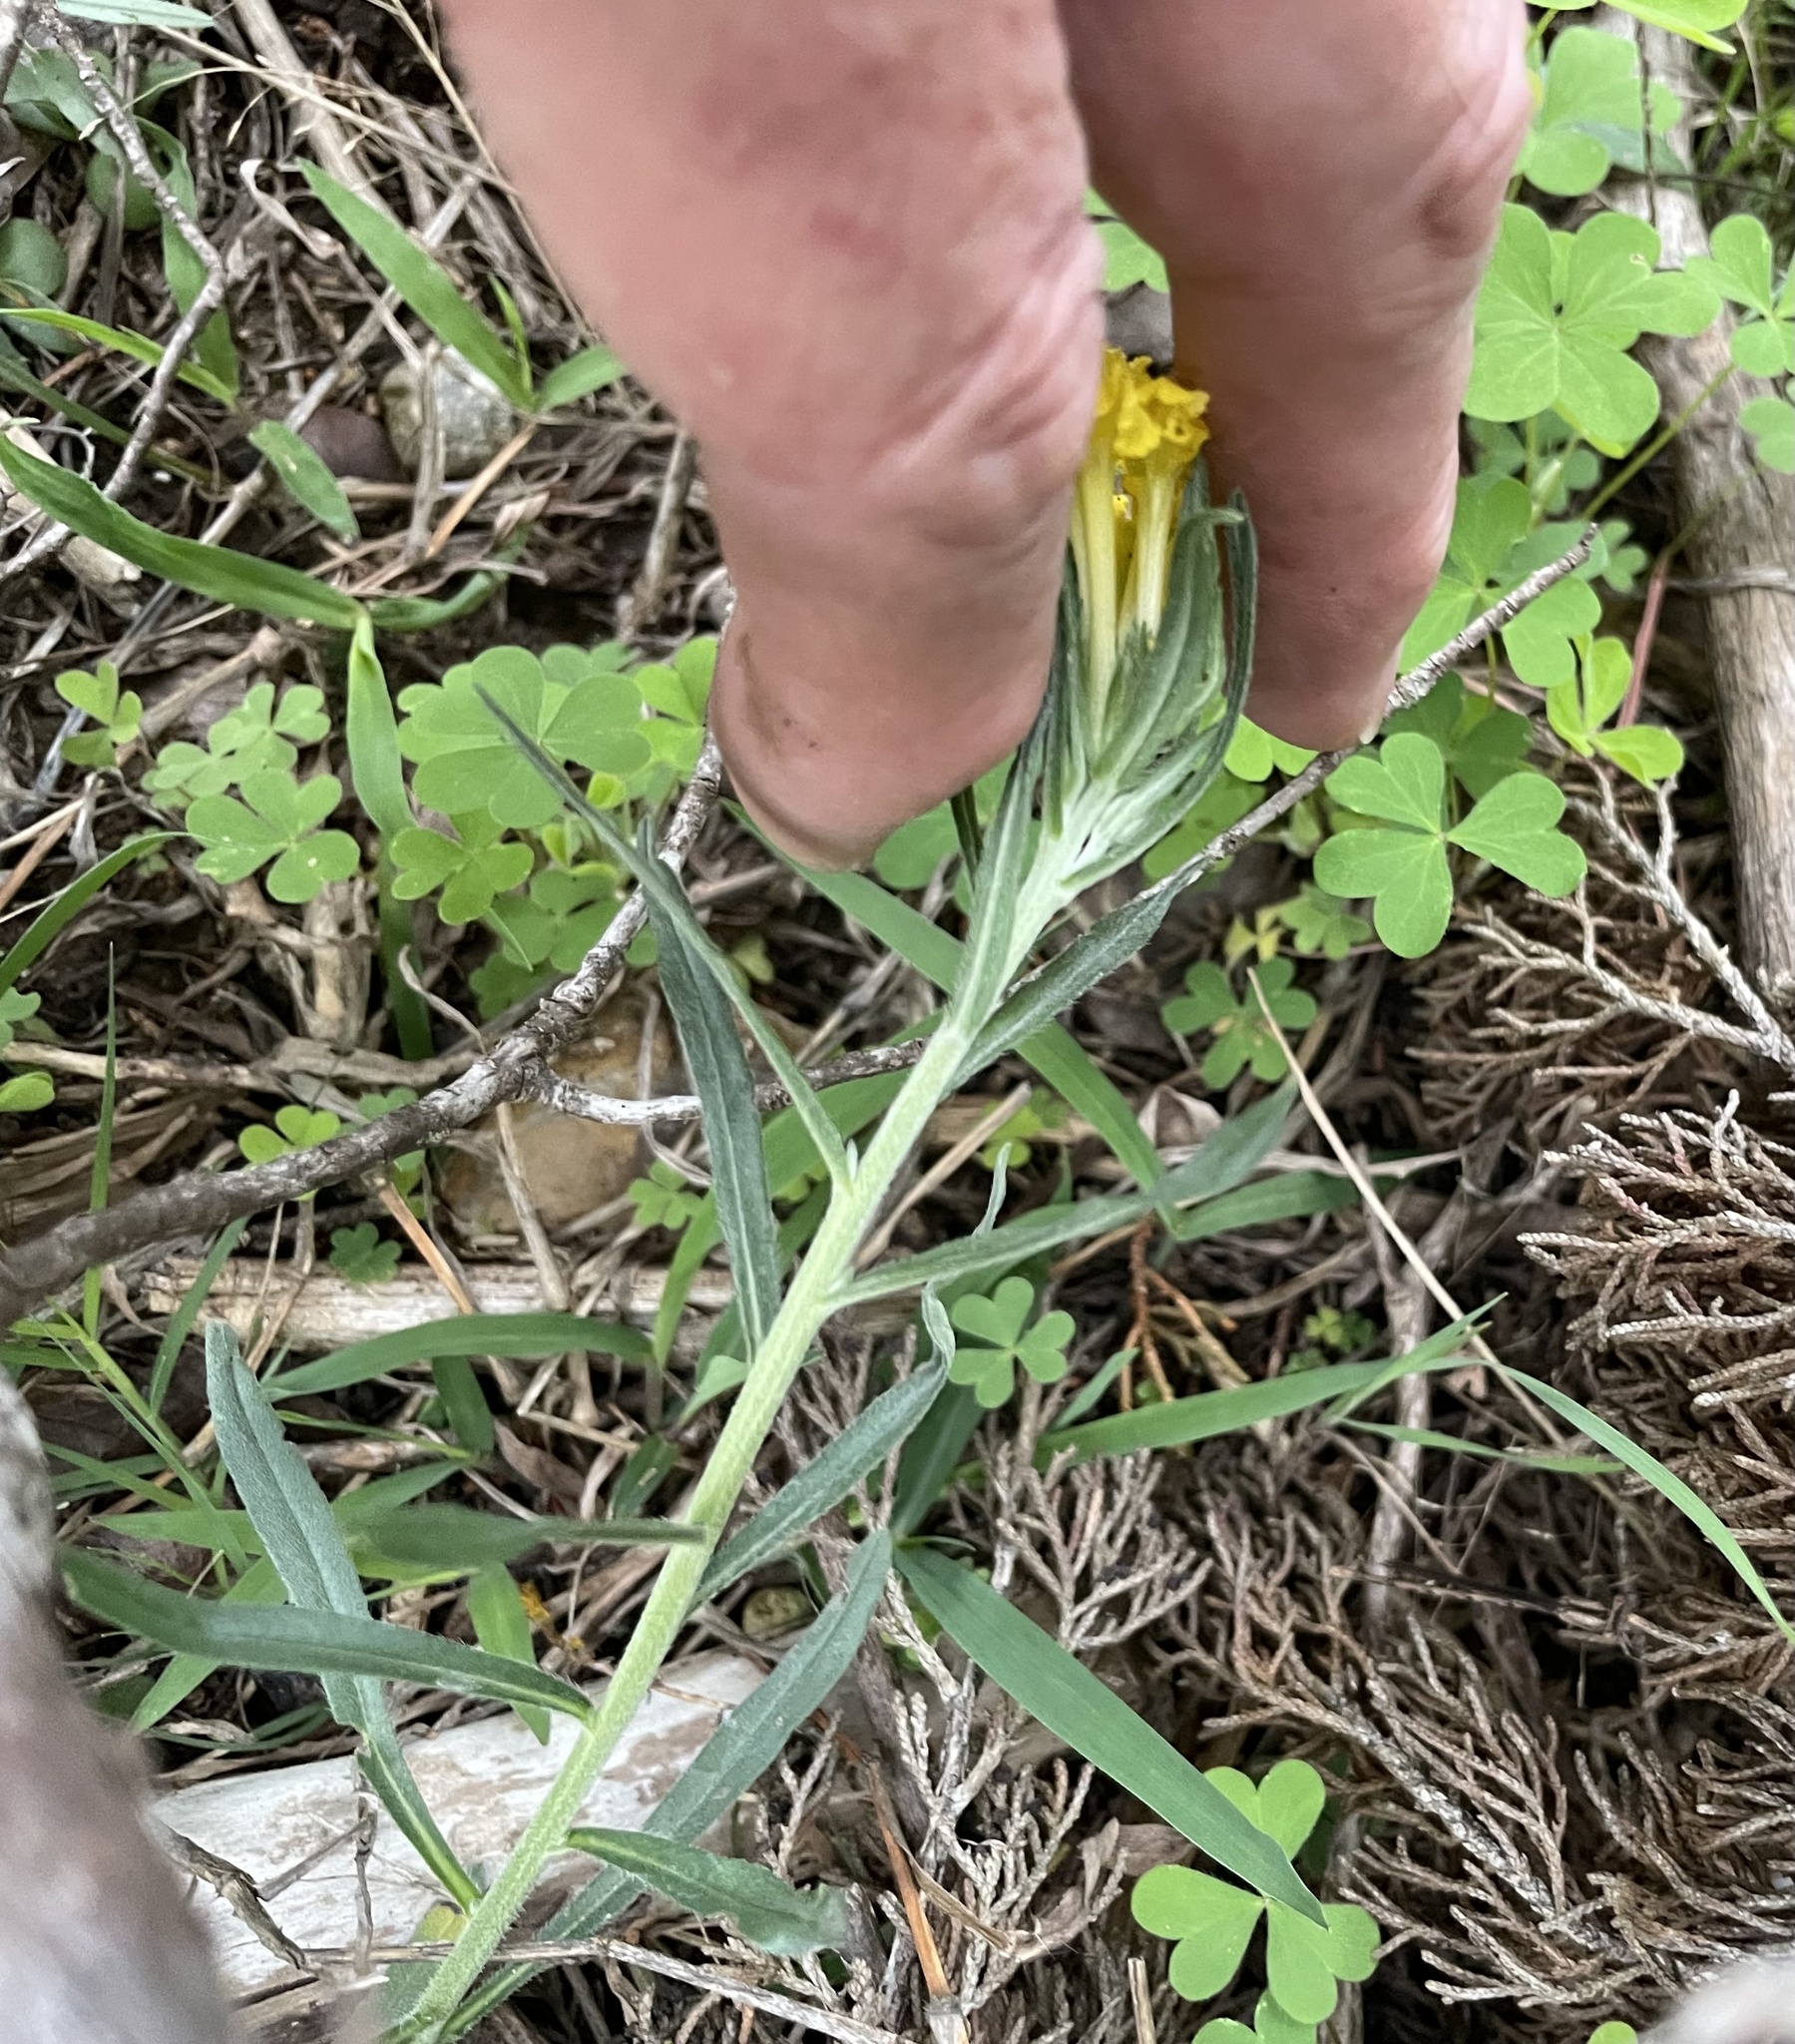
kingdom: Plantae
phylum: Tracheophyta
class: Magnoliopsida
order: Boraginales
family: Boraginaceae
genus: Lithospermum
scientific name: Lithospermum incisum
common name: Fringed gromwell
